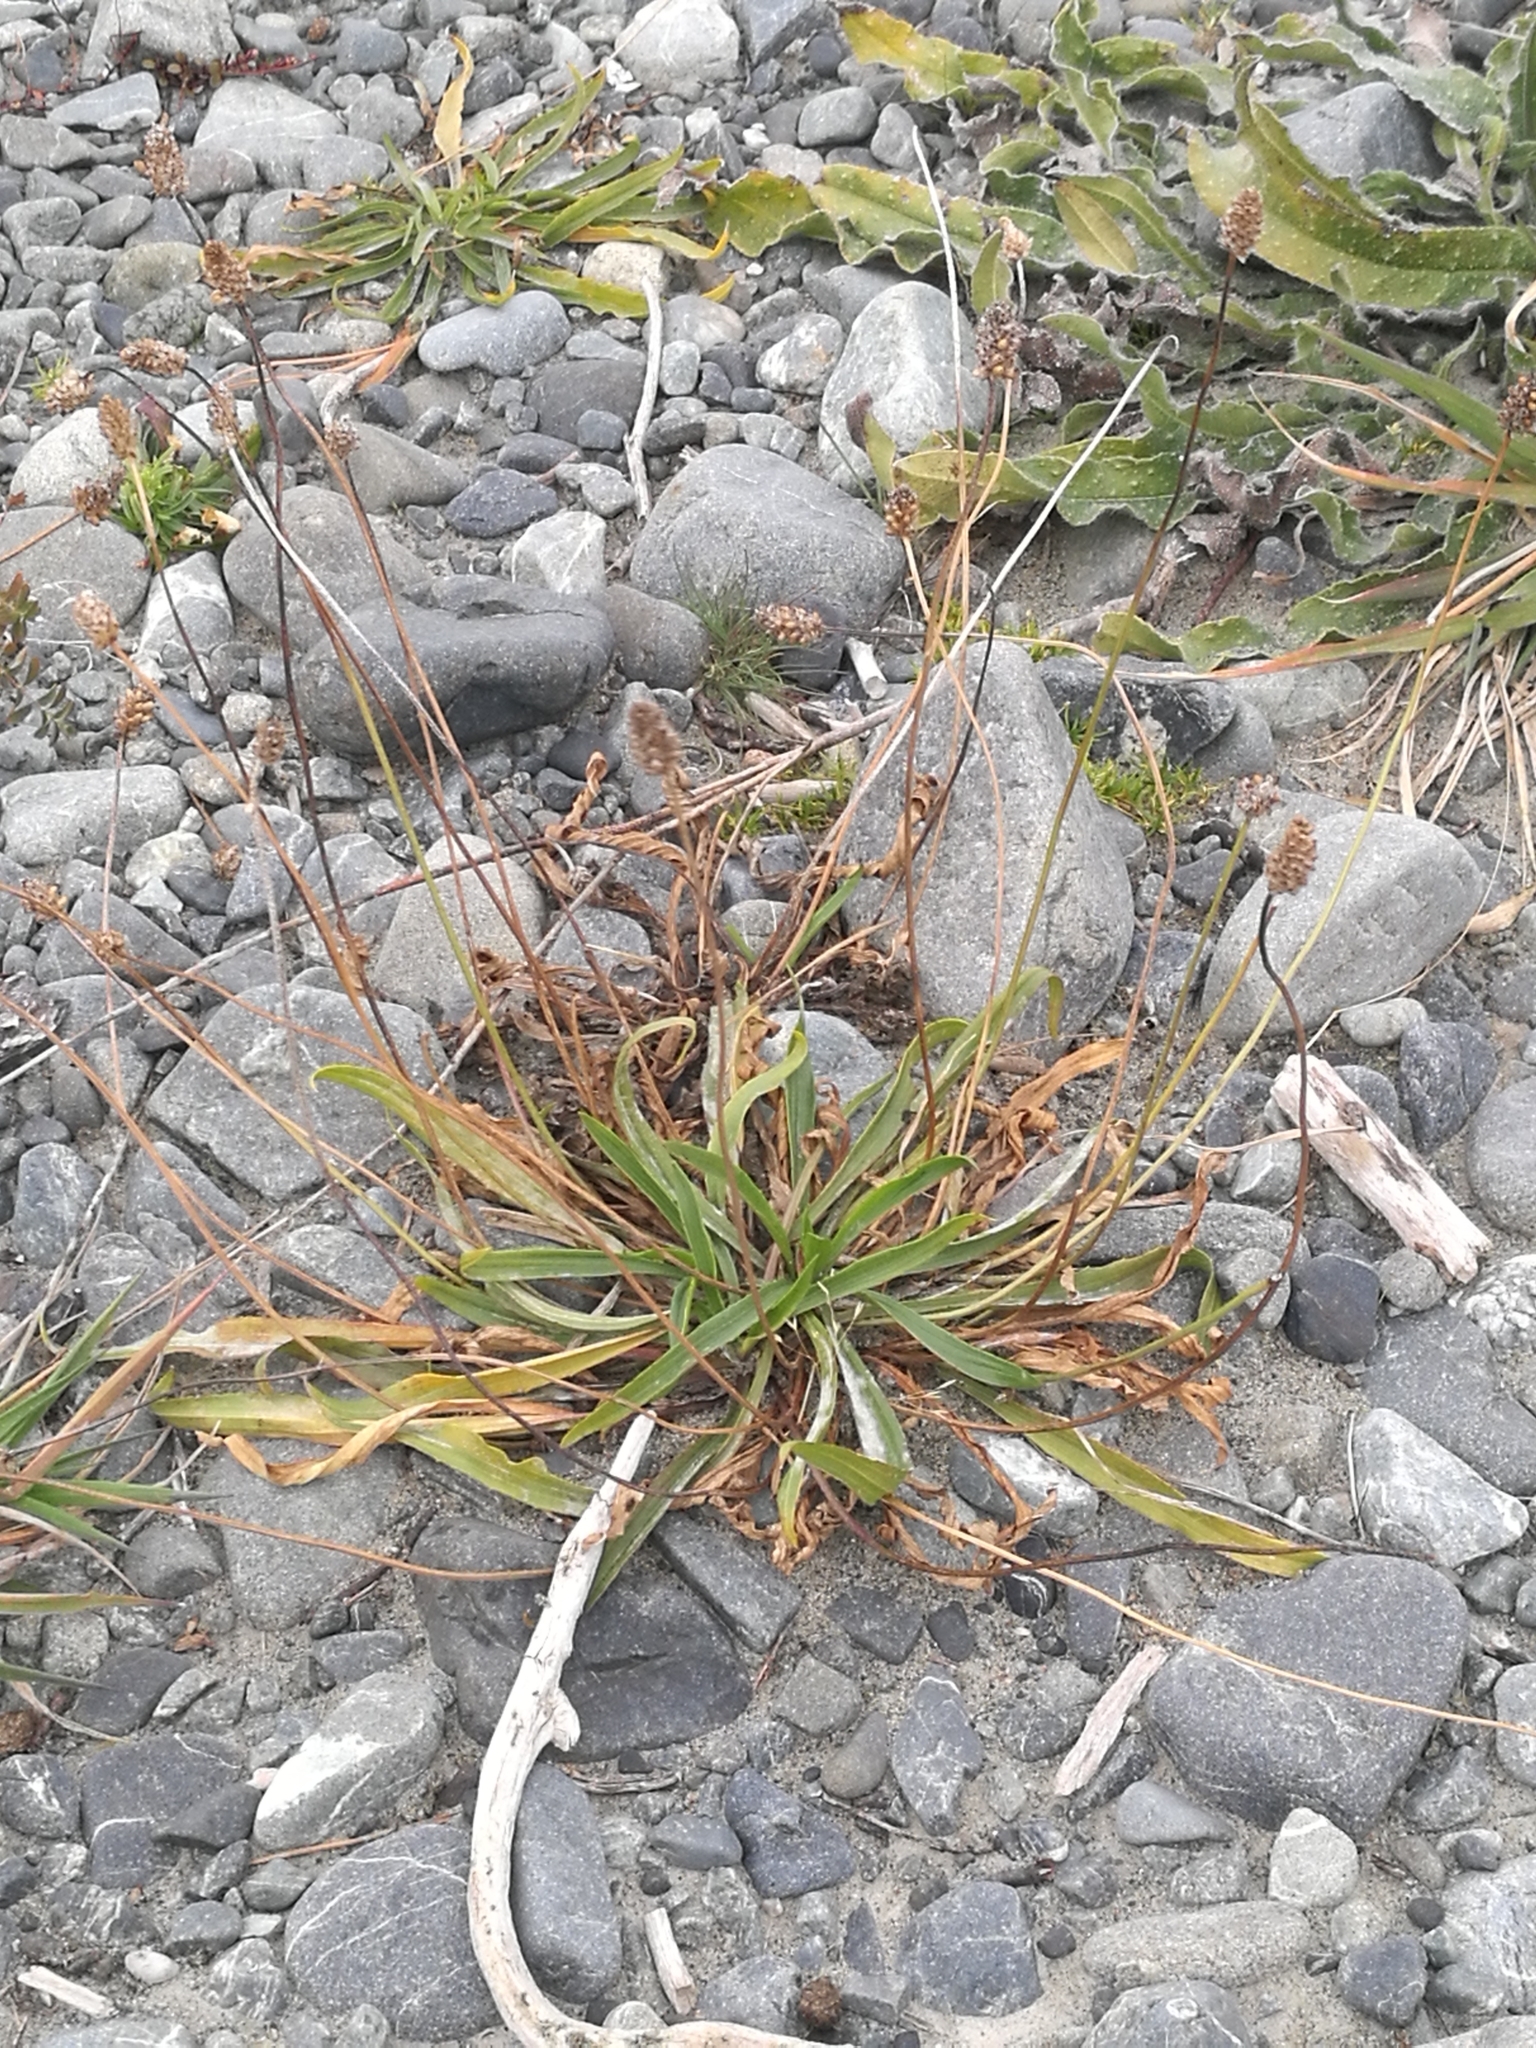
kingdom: Plantae
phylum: Tracheophyta
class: Magnoliopsida
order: Lamiales
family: Plantaginaceae
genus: Plantago
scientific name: Plantago lanceolata
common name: Ribwort plantain
